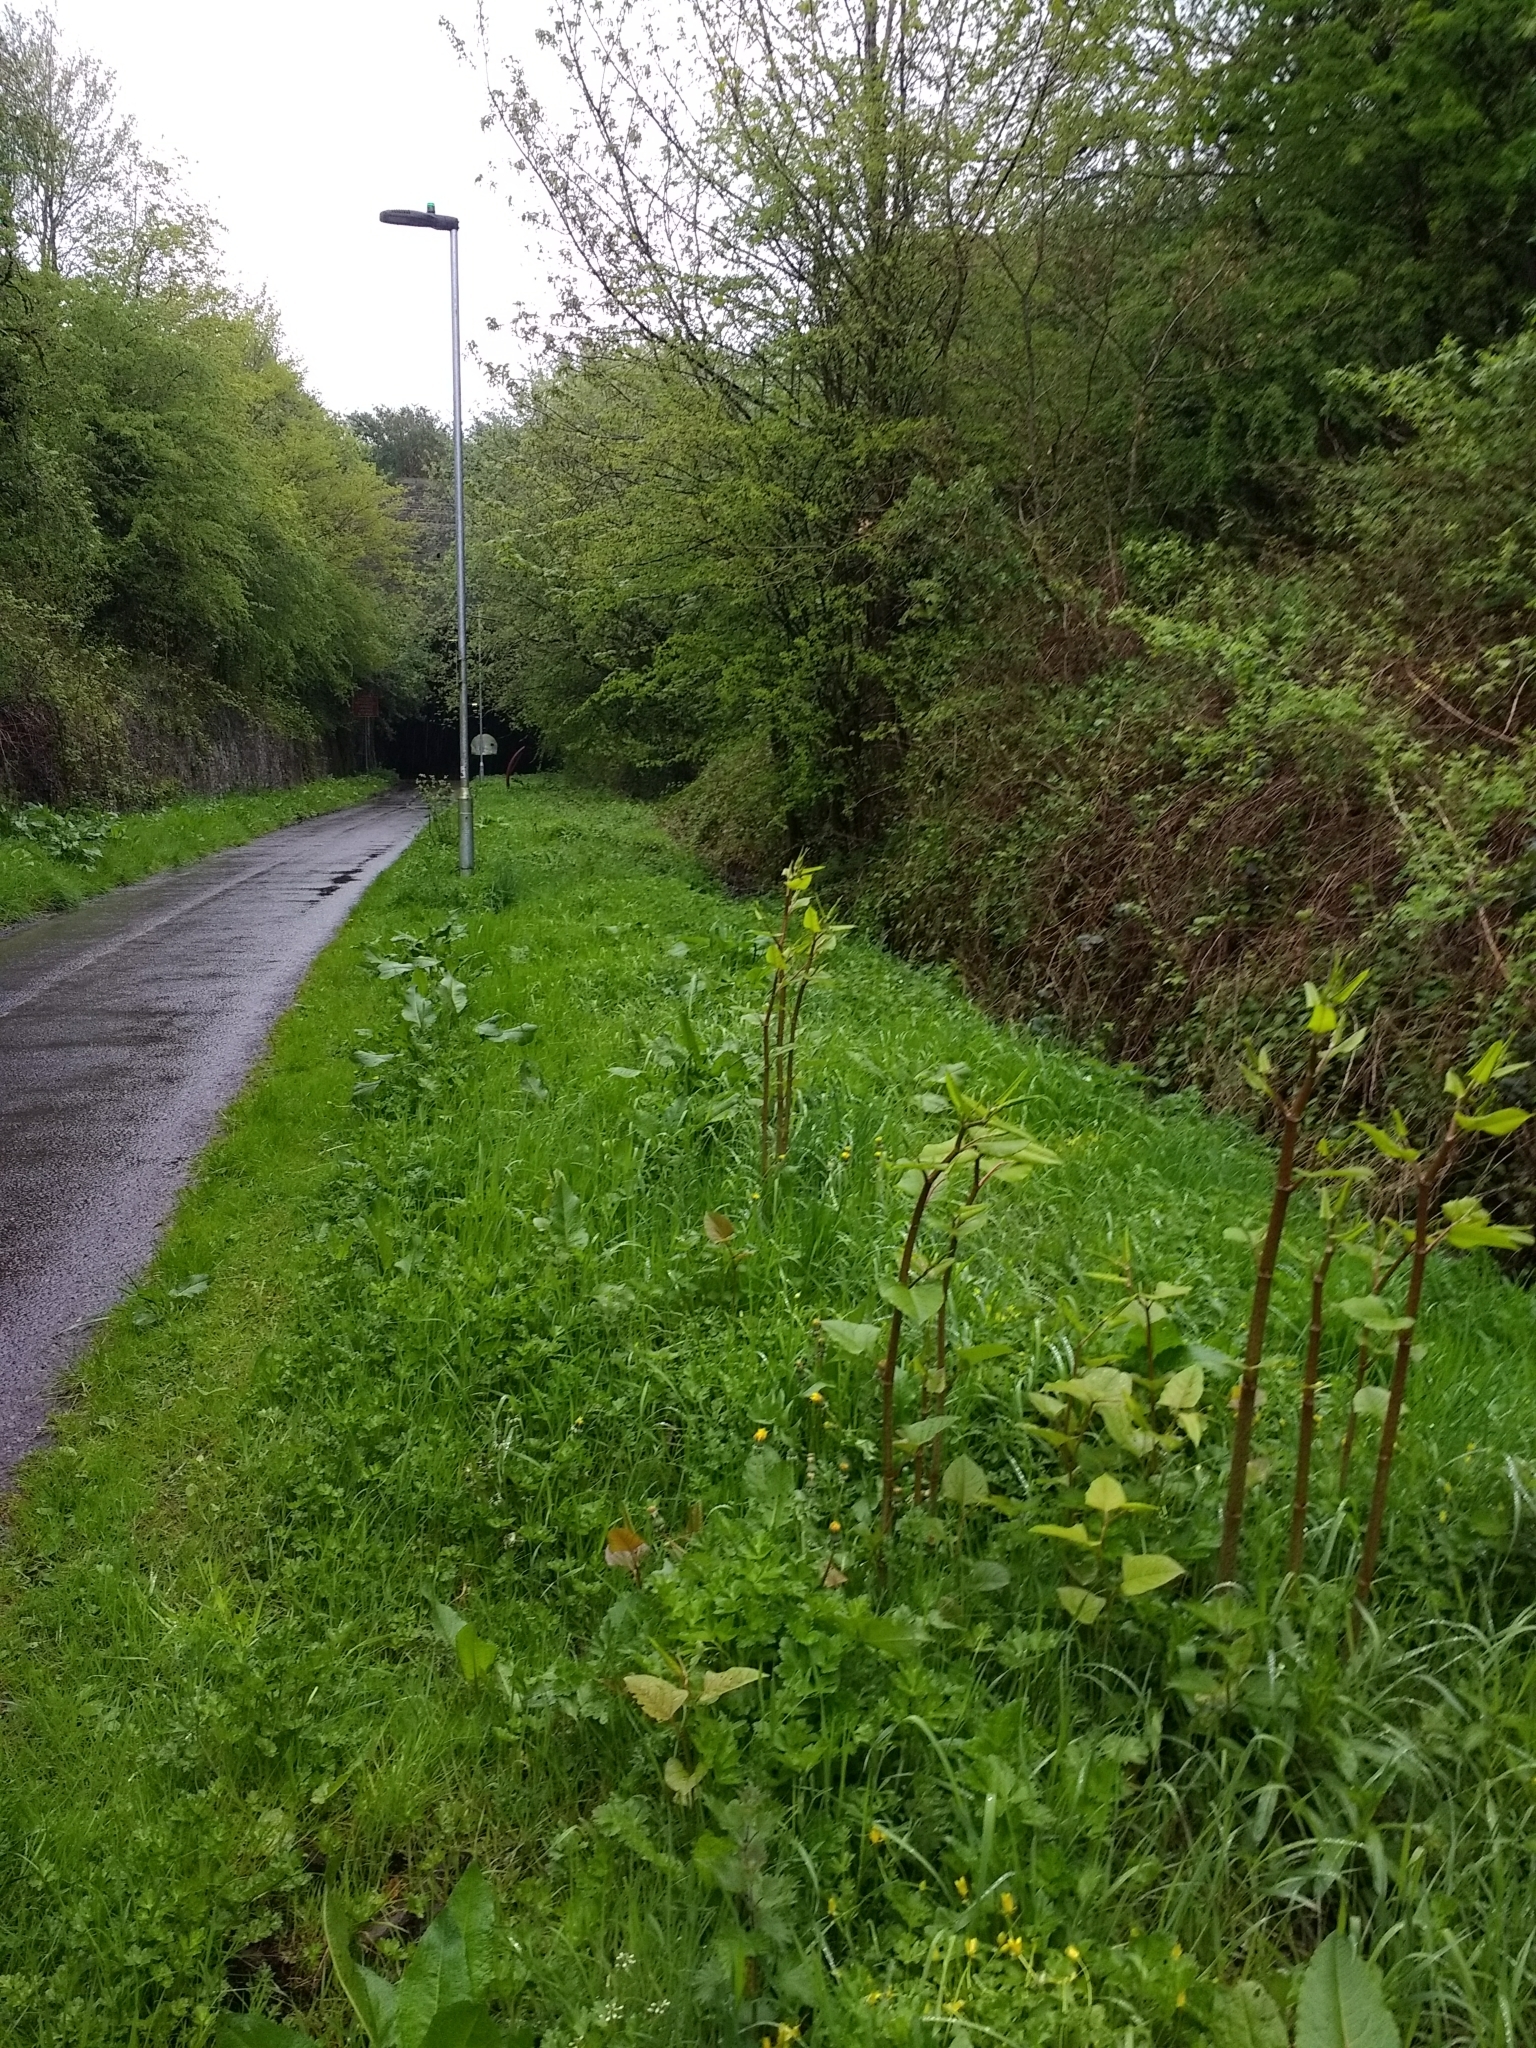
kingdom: Plantae
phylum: Tracheophyta
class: Magnoliopsida
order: Caryophyllales
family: Polygonaceae
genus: Reynoutria
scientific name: Reynoutria japonica
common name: Japanese knotweed
